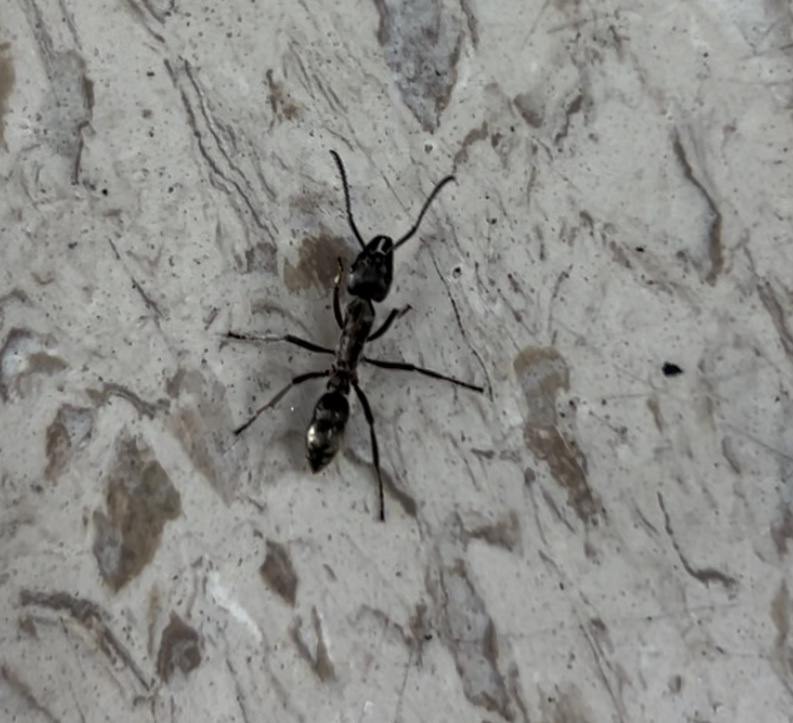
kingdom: Animalia
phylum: Arthropoda
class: Insecta
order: Hymenoptera
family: Formicidae
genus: Pachycondyla
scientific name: Pachycondyla villosa
